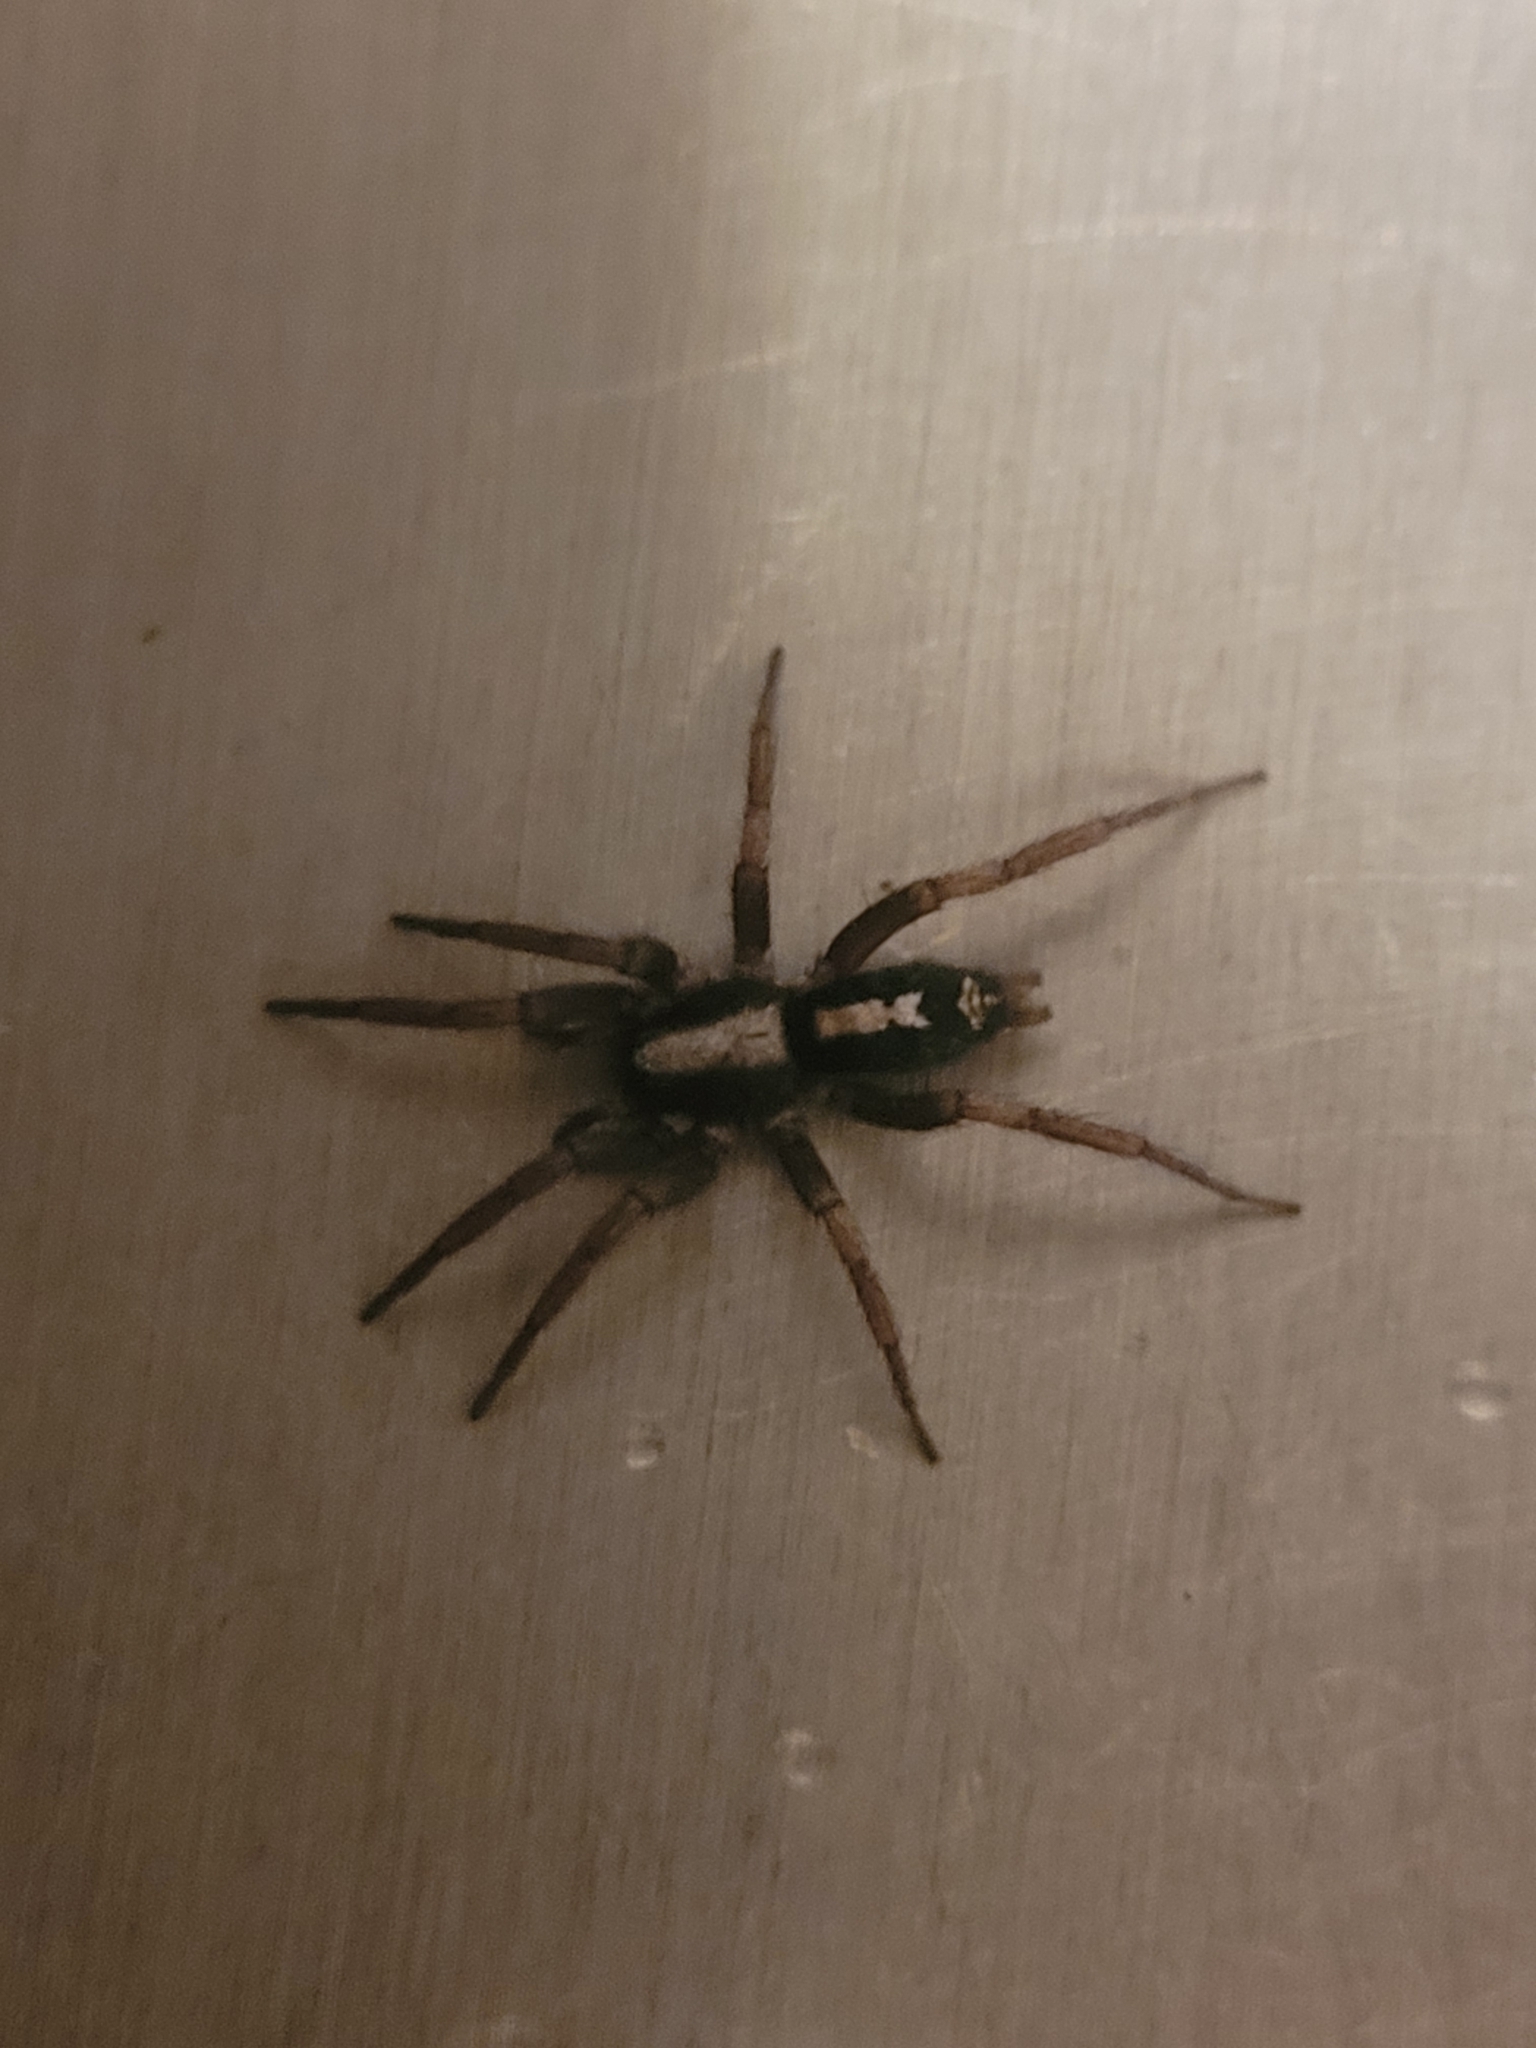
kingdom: Animalia
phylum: Arthropoda
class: Arachnida
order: Araneae
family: Gnaphosidae
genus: Herpyllus
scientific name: Herpyllus ecclesiasticus
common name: Eastern parson spider
